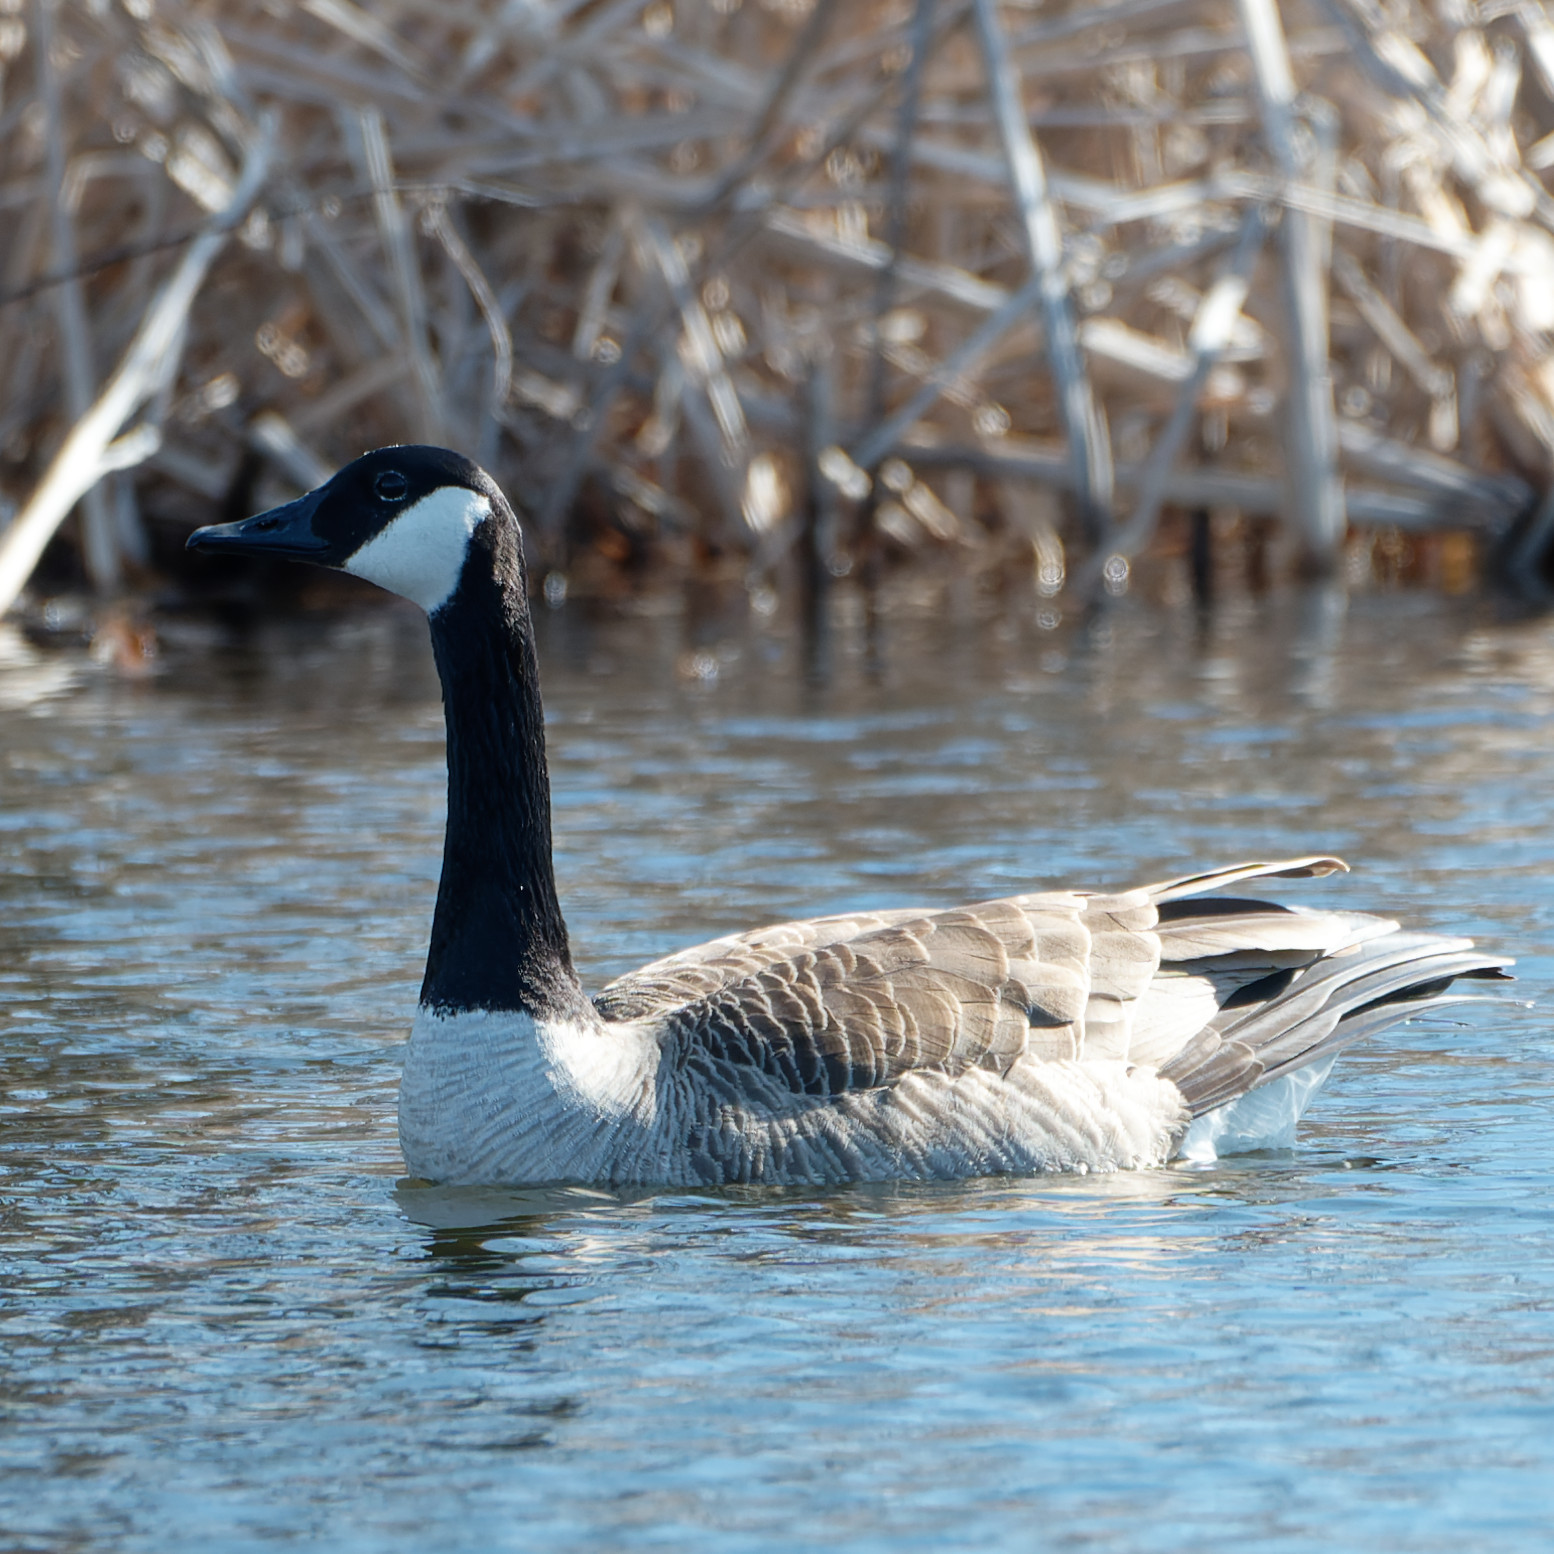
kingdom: Animalia
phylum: Chordata
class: Aves
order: Anseriformes
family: Anatidae
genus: Branta
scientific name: Branta canadensis
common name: Canada goose
